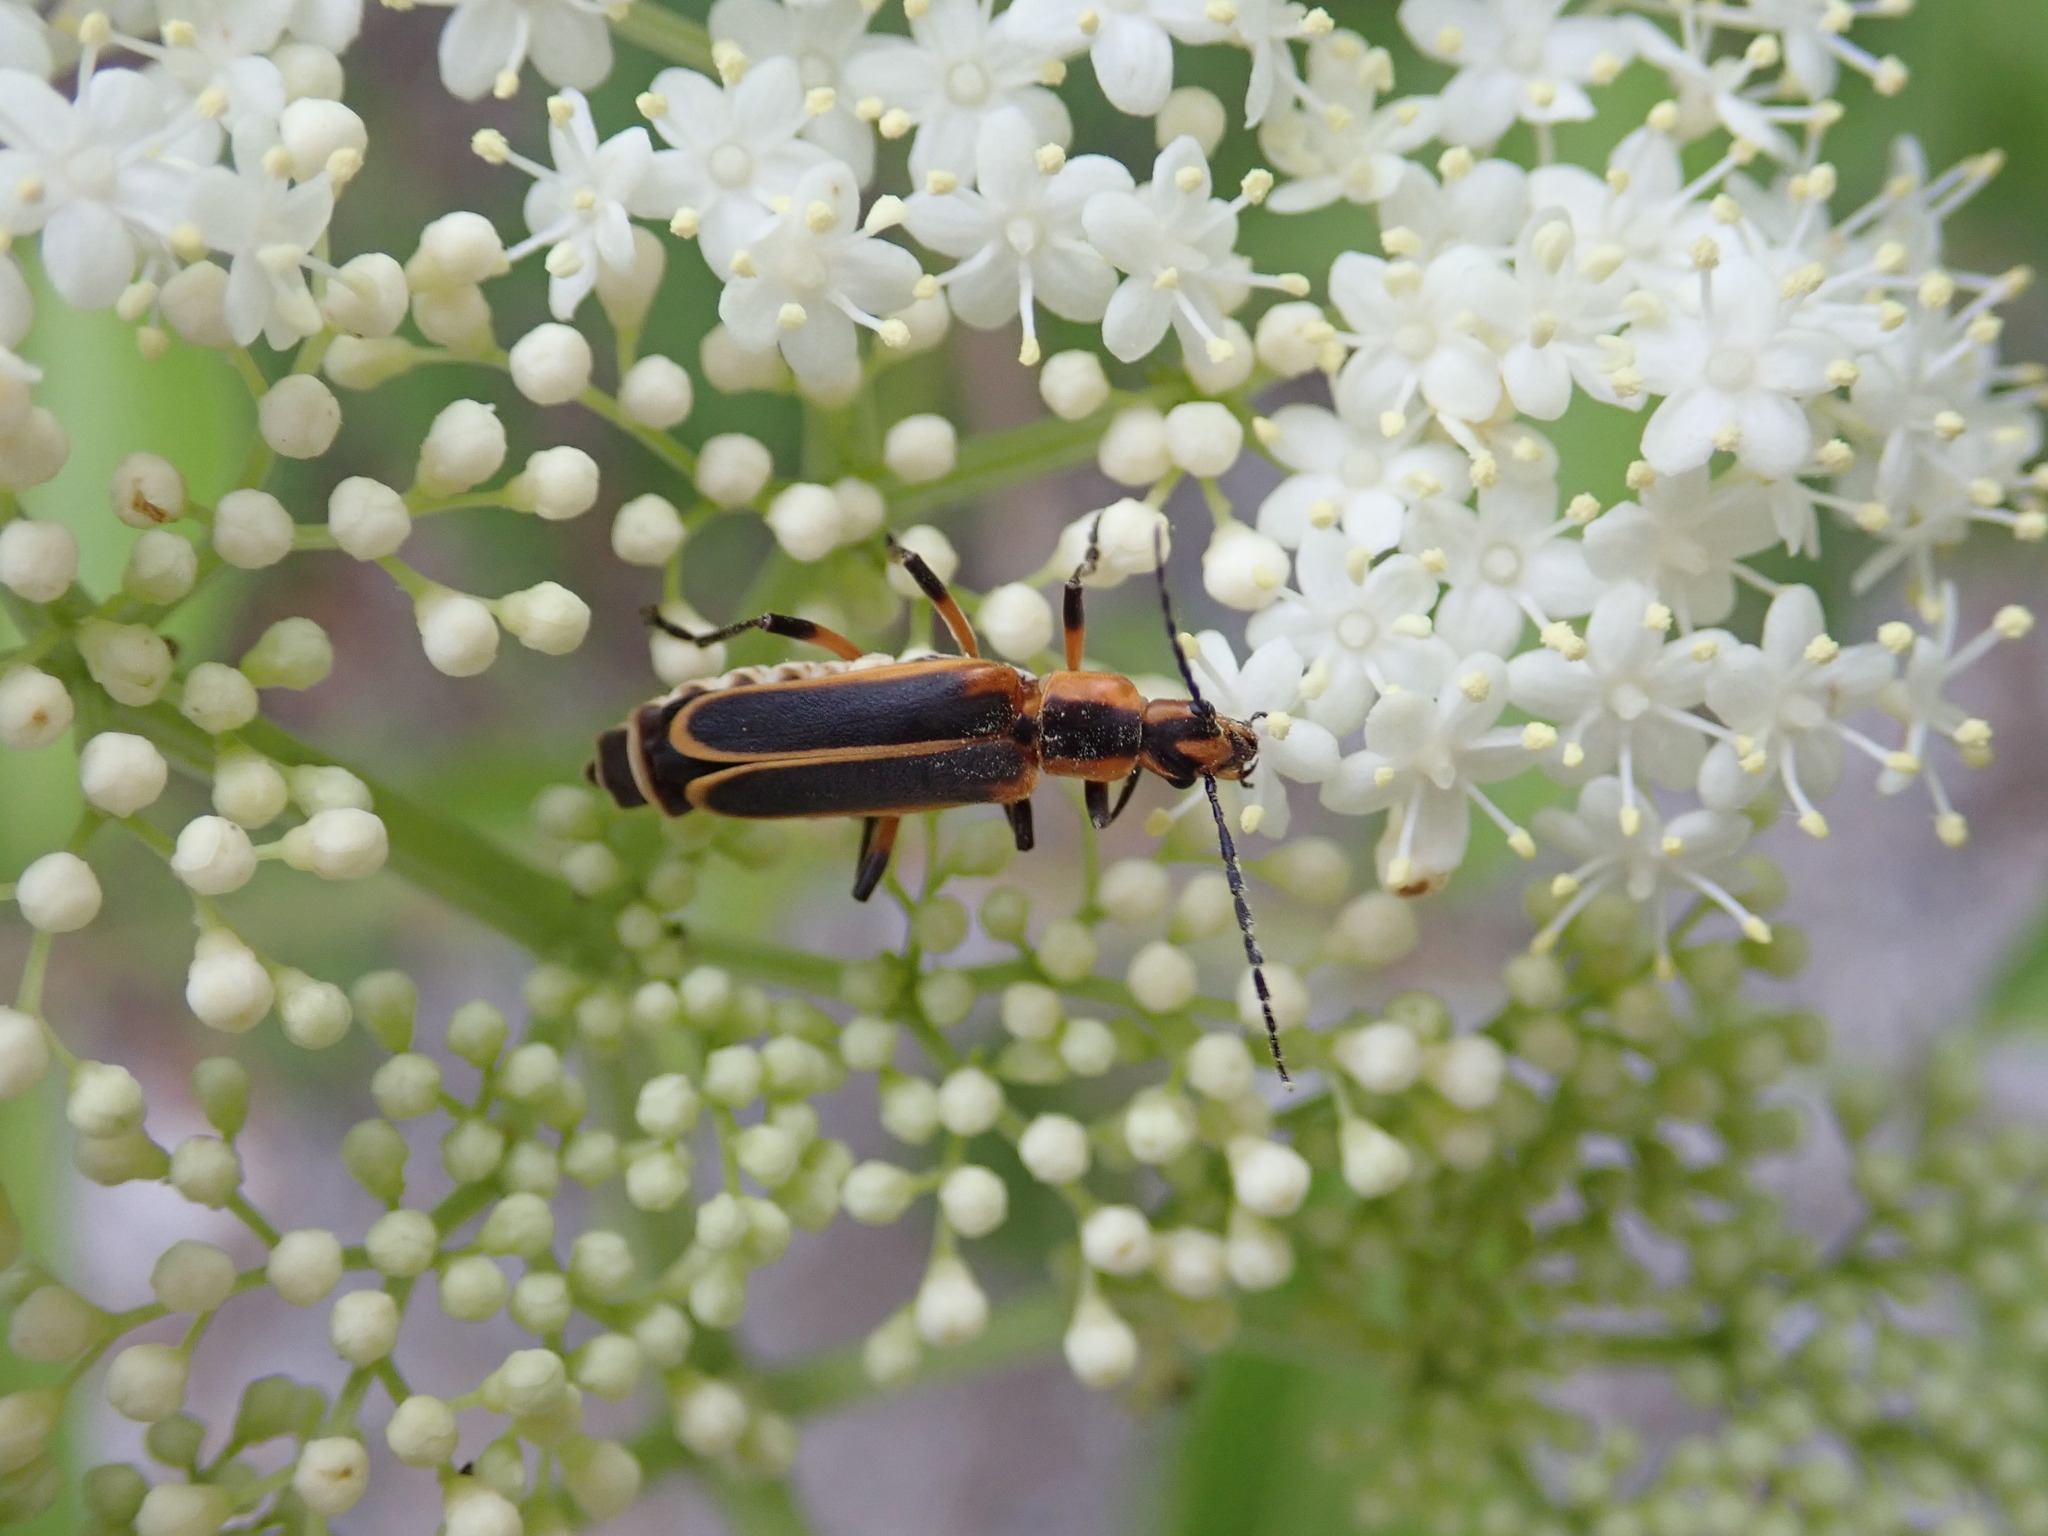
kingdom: Animalia
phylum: Arthropoda
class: Insecta
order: Coleoptera
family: Cantharidae
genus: Chauliognathus
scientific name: Chauliognathus marginatus
